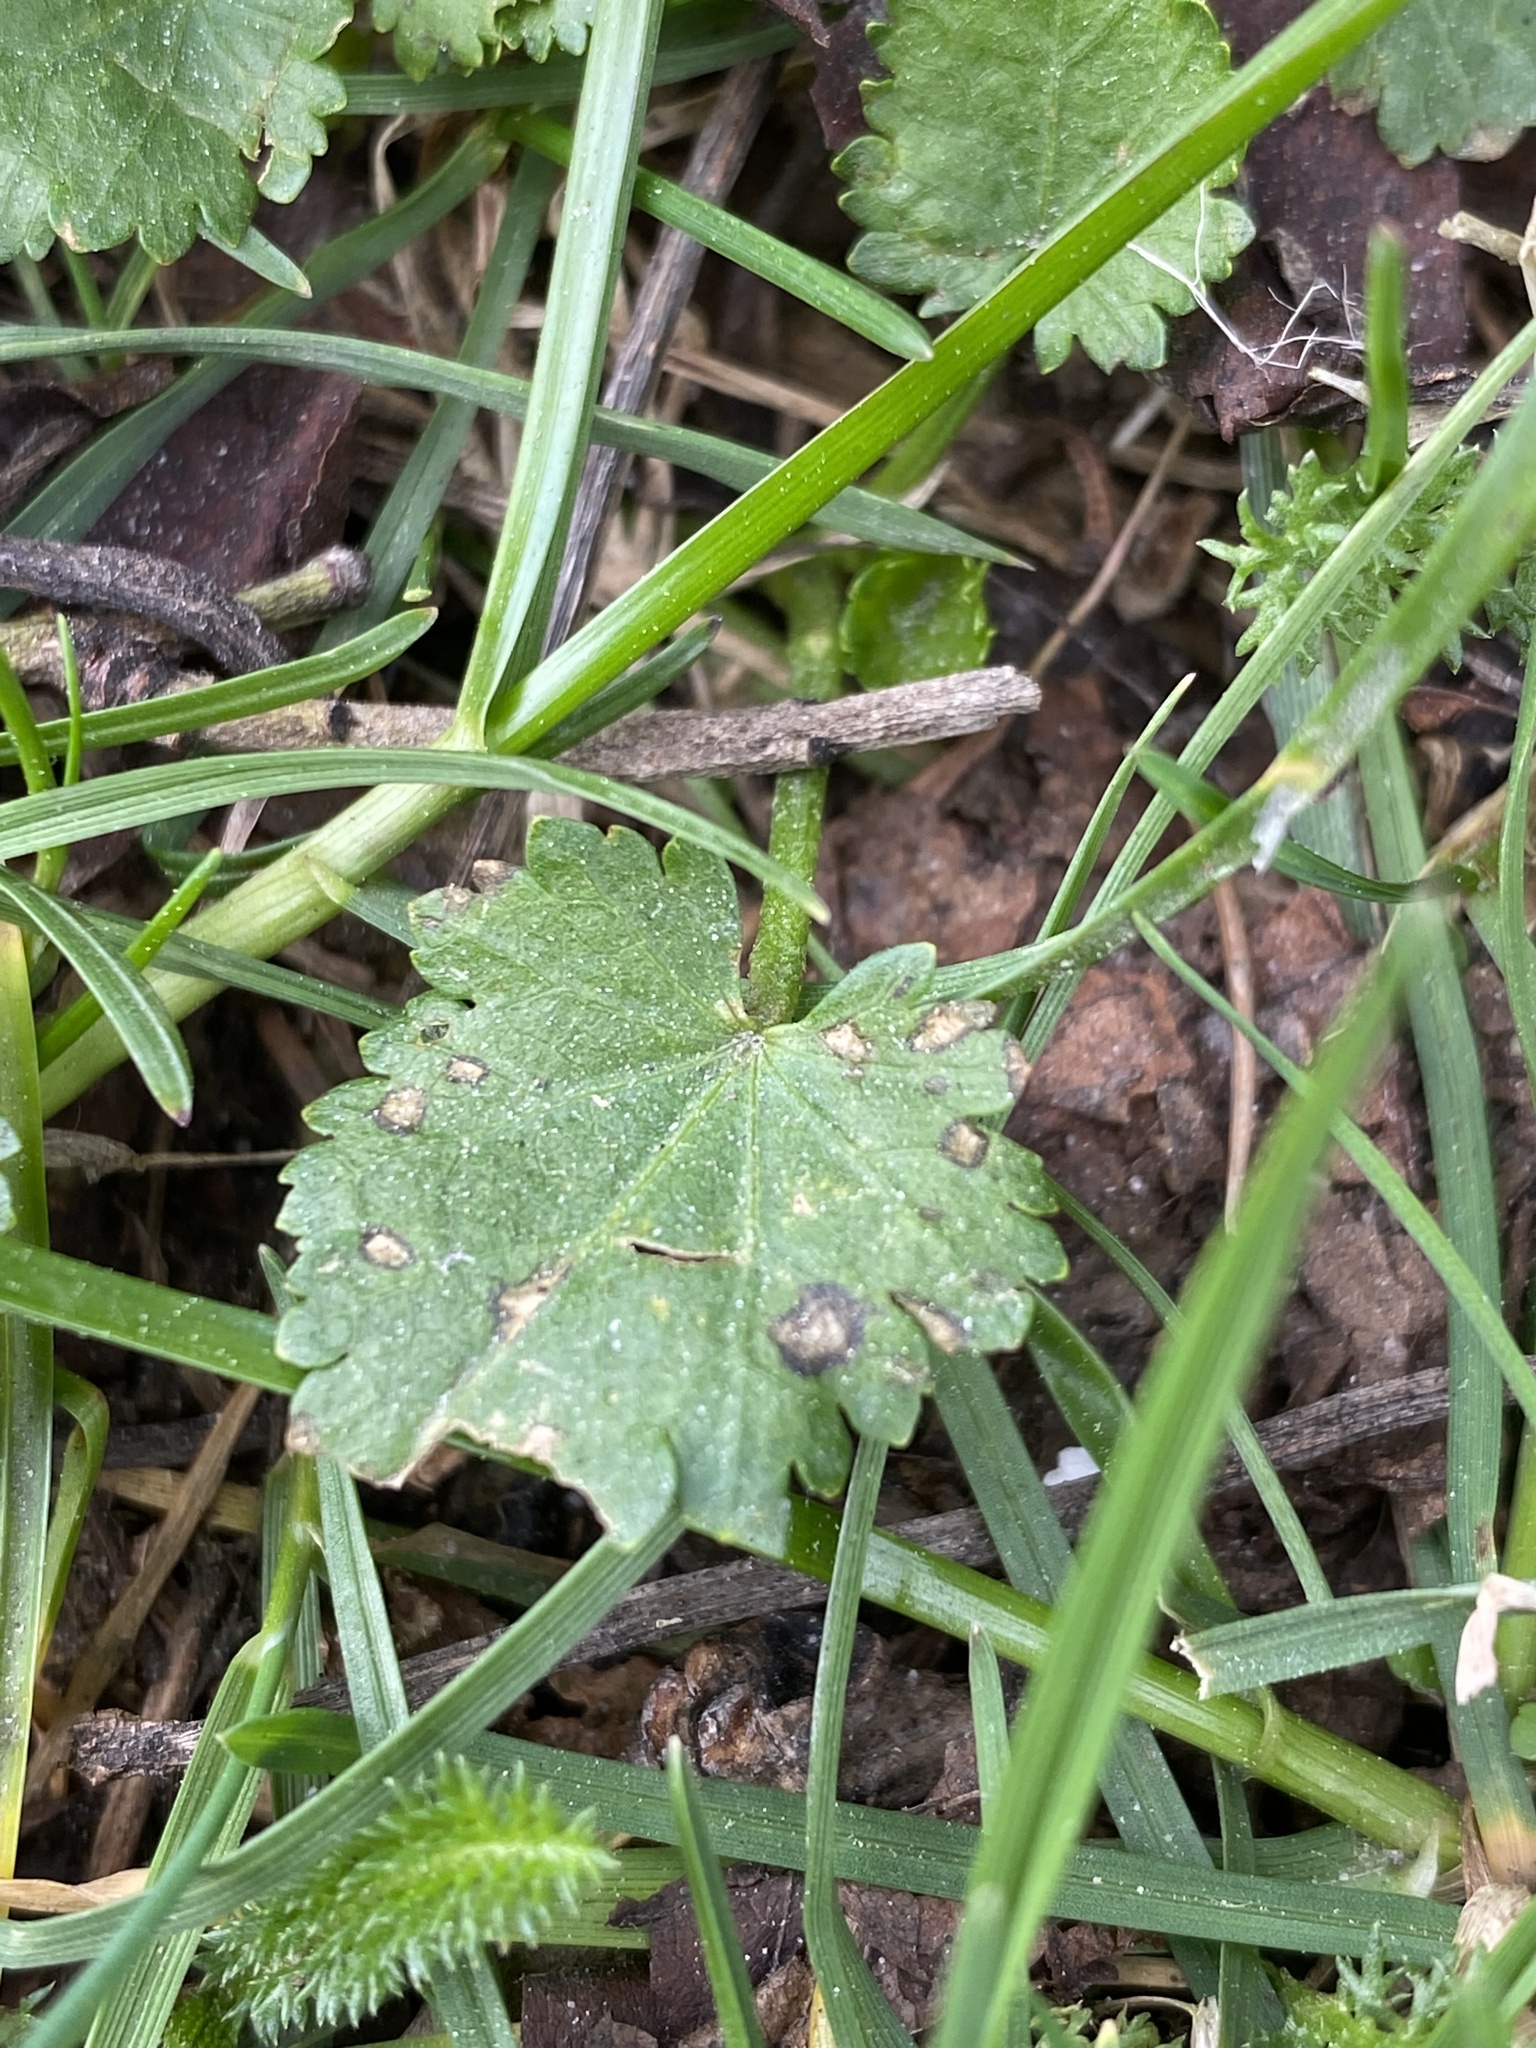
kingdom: Plantae
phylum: Tracheophyta
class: Magnoliopsida
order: Malvales
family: Malvaceae
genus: Modiola
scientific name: Modiola caroliniana
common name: Carolina bristlemallow
